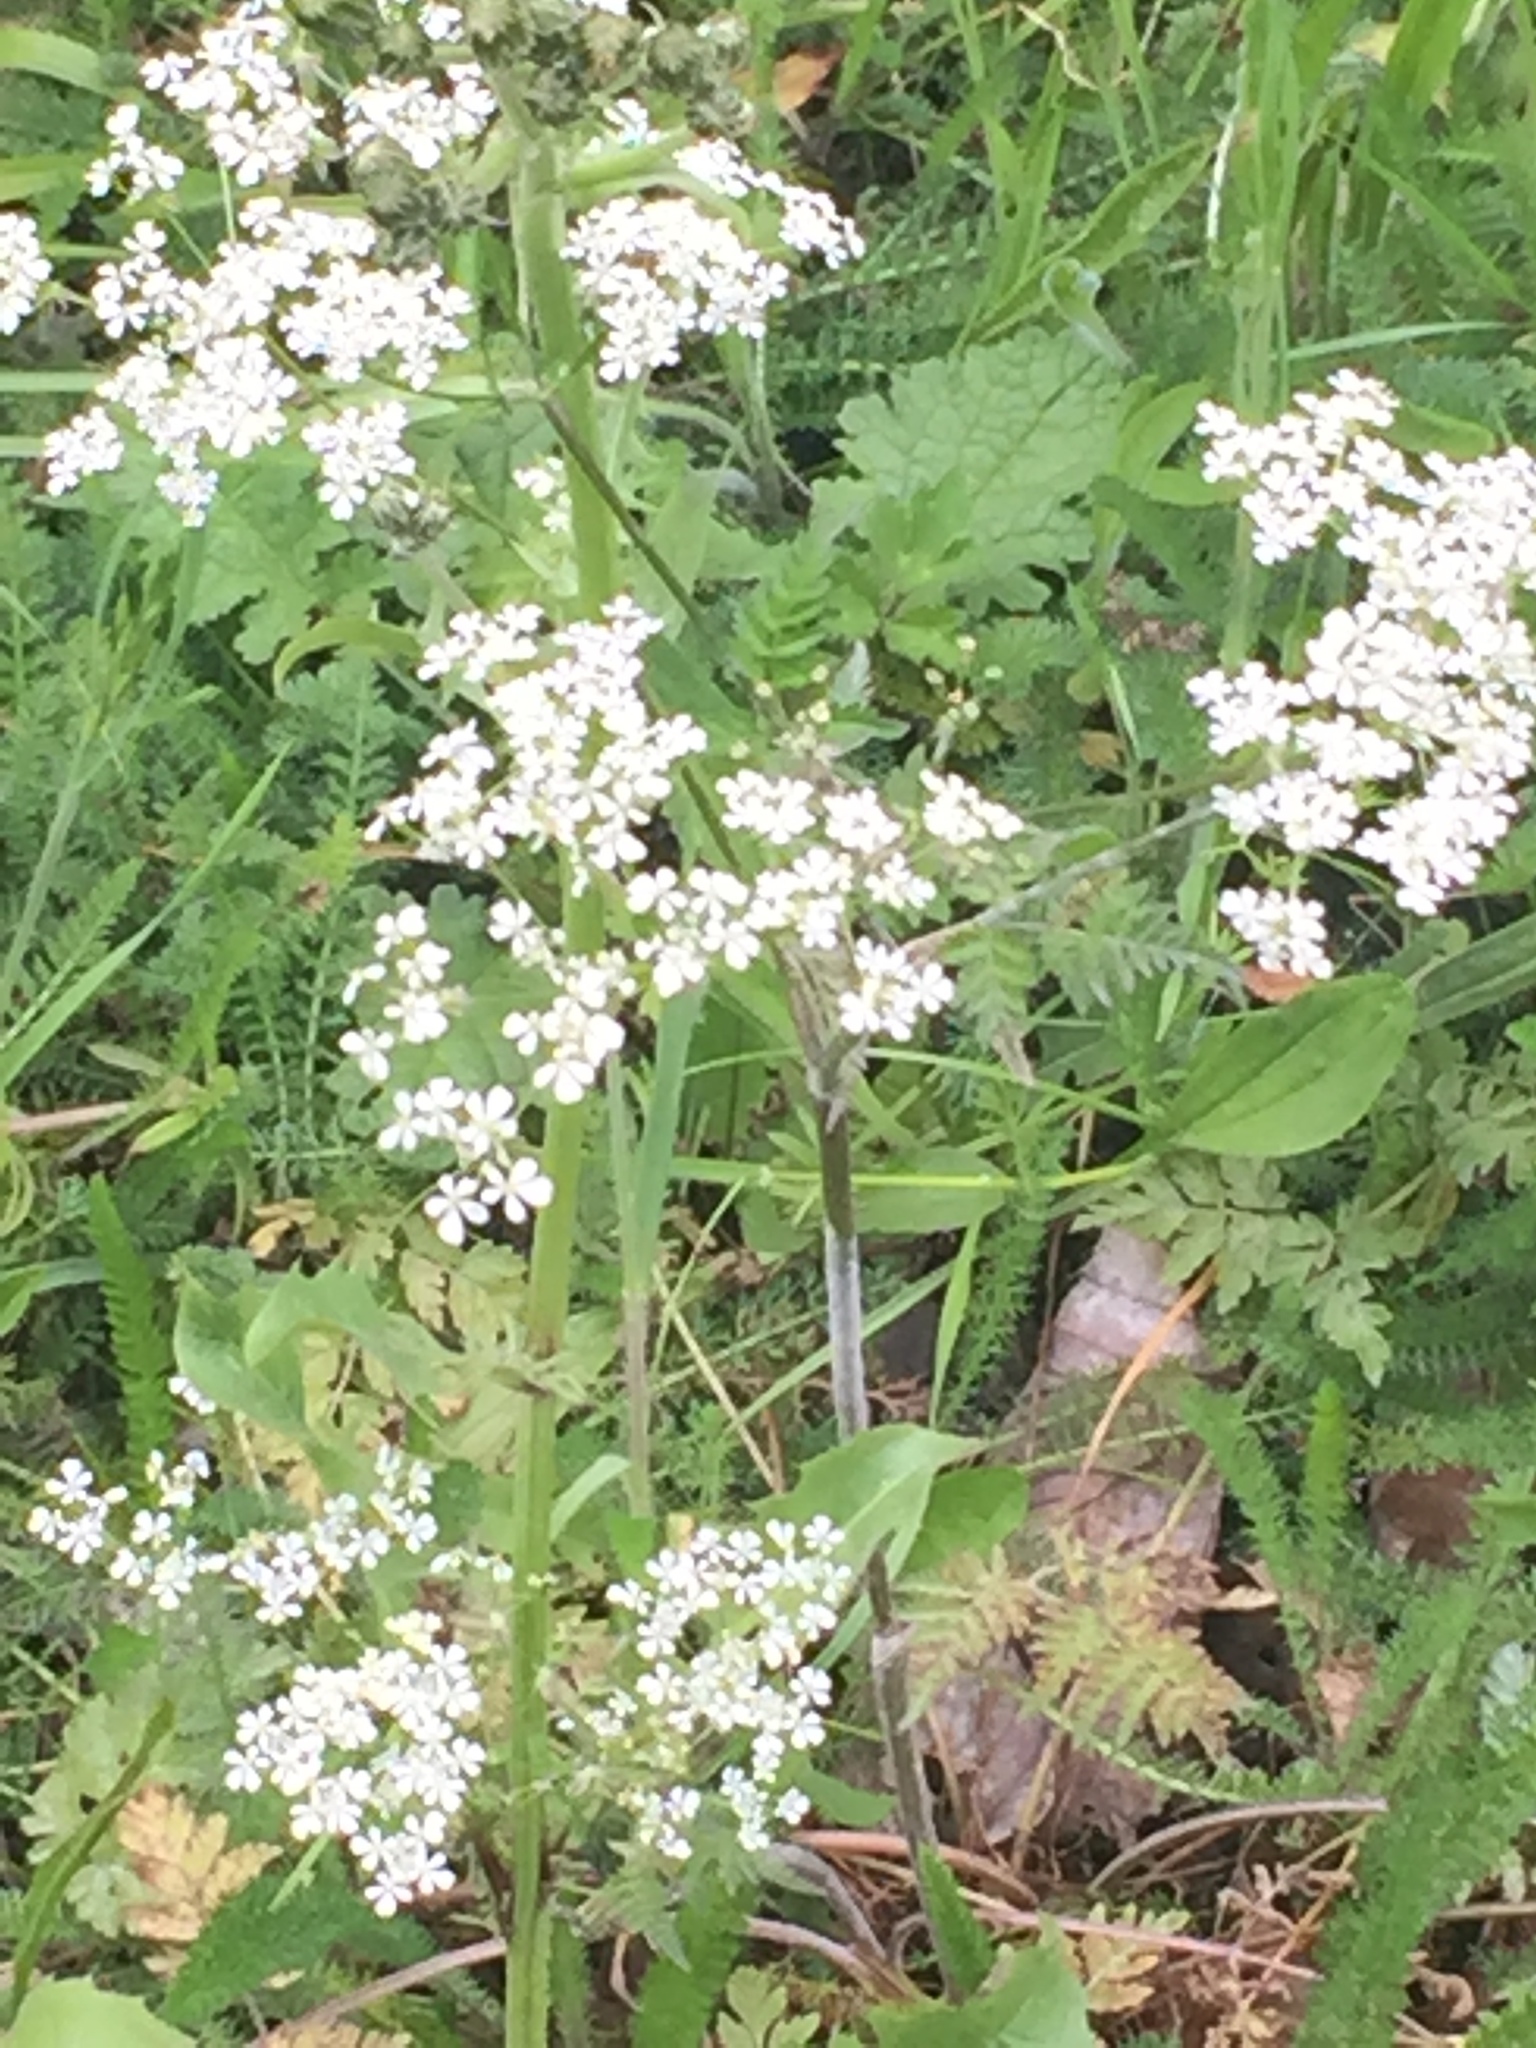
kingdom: Plantae
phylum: Tracheophyta
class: Magnoliopsida
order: Apiales
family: Apiaceae
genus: Anthriscus
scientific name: Anthriscus sylvestris
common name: Cow parsley
